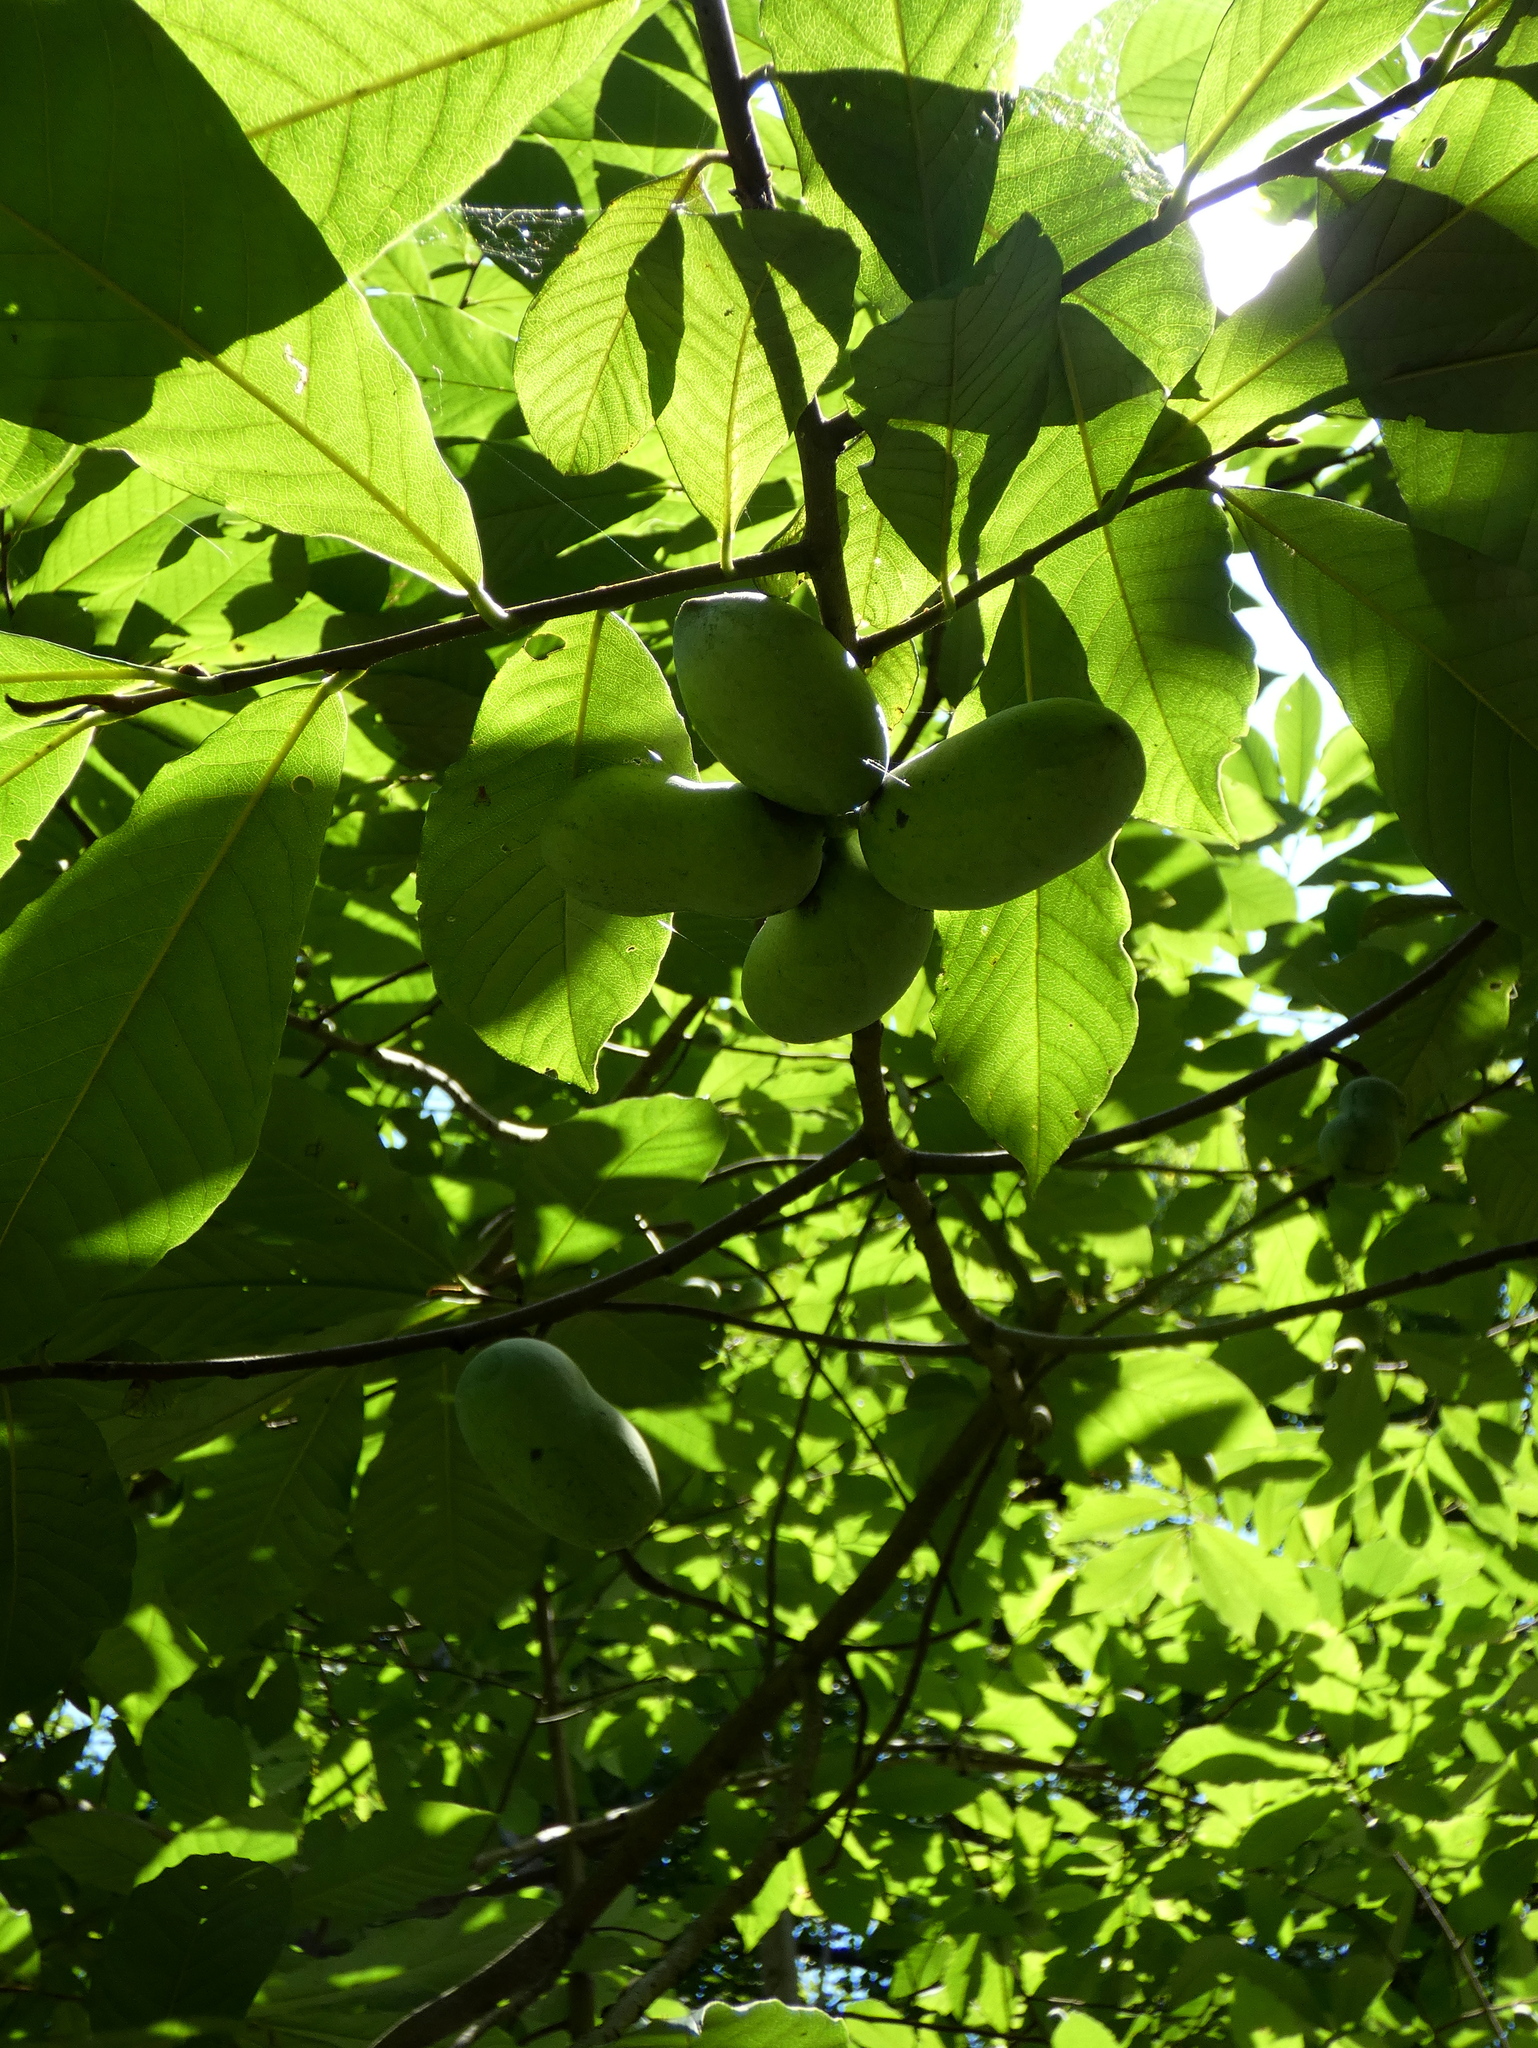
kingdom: Plantae
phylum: Tracheophyta
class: Magnoliopsida
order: Magnoliales
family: Annonaceae
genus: Asimina
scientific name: Asimina triloba
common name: Dog-banana
